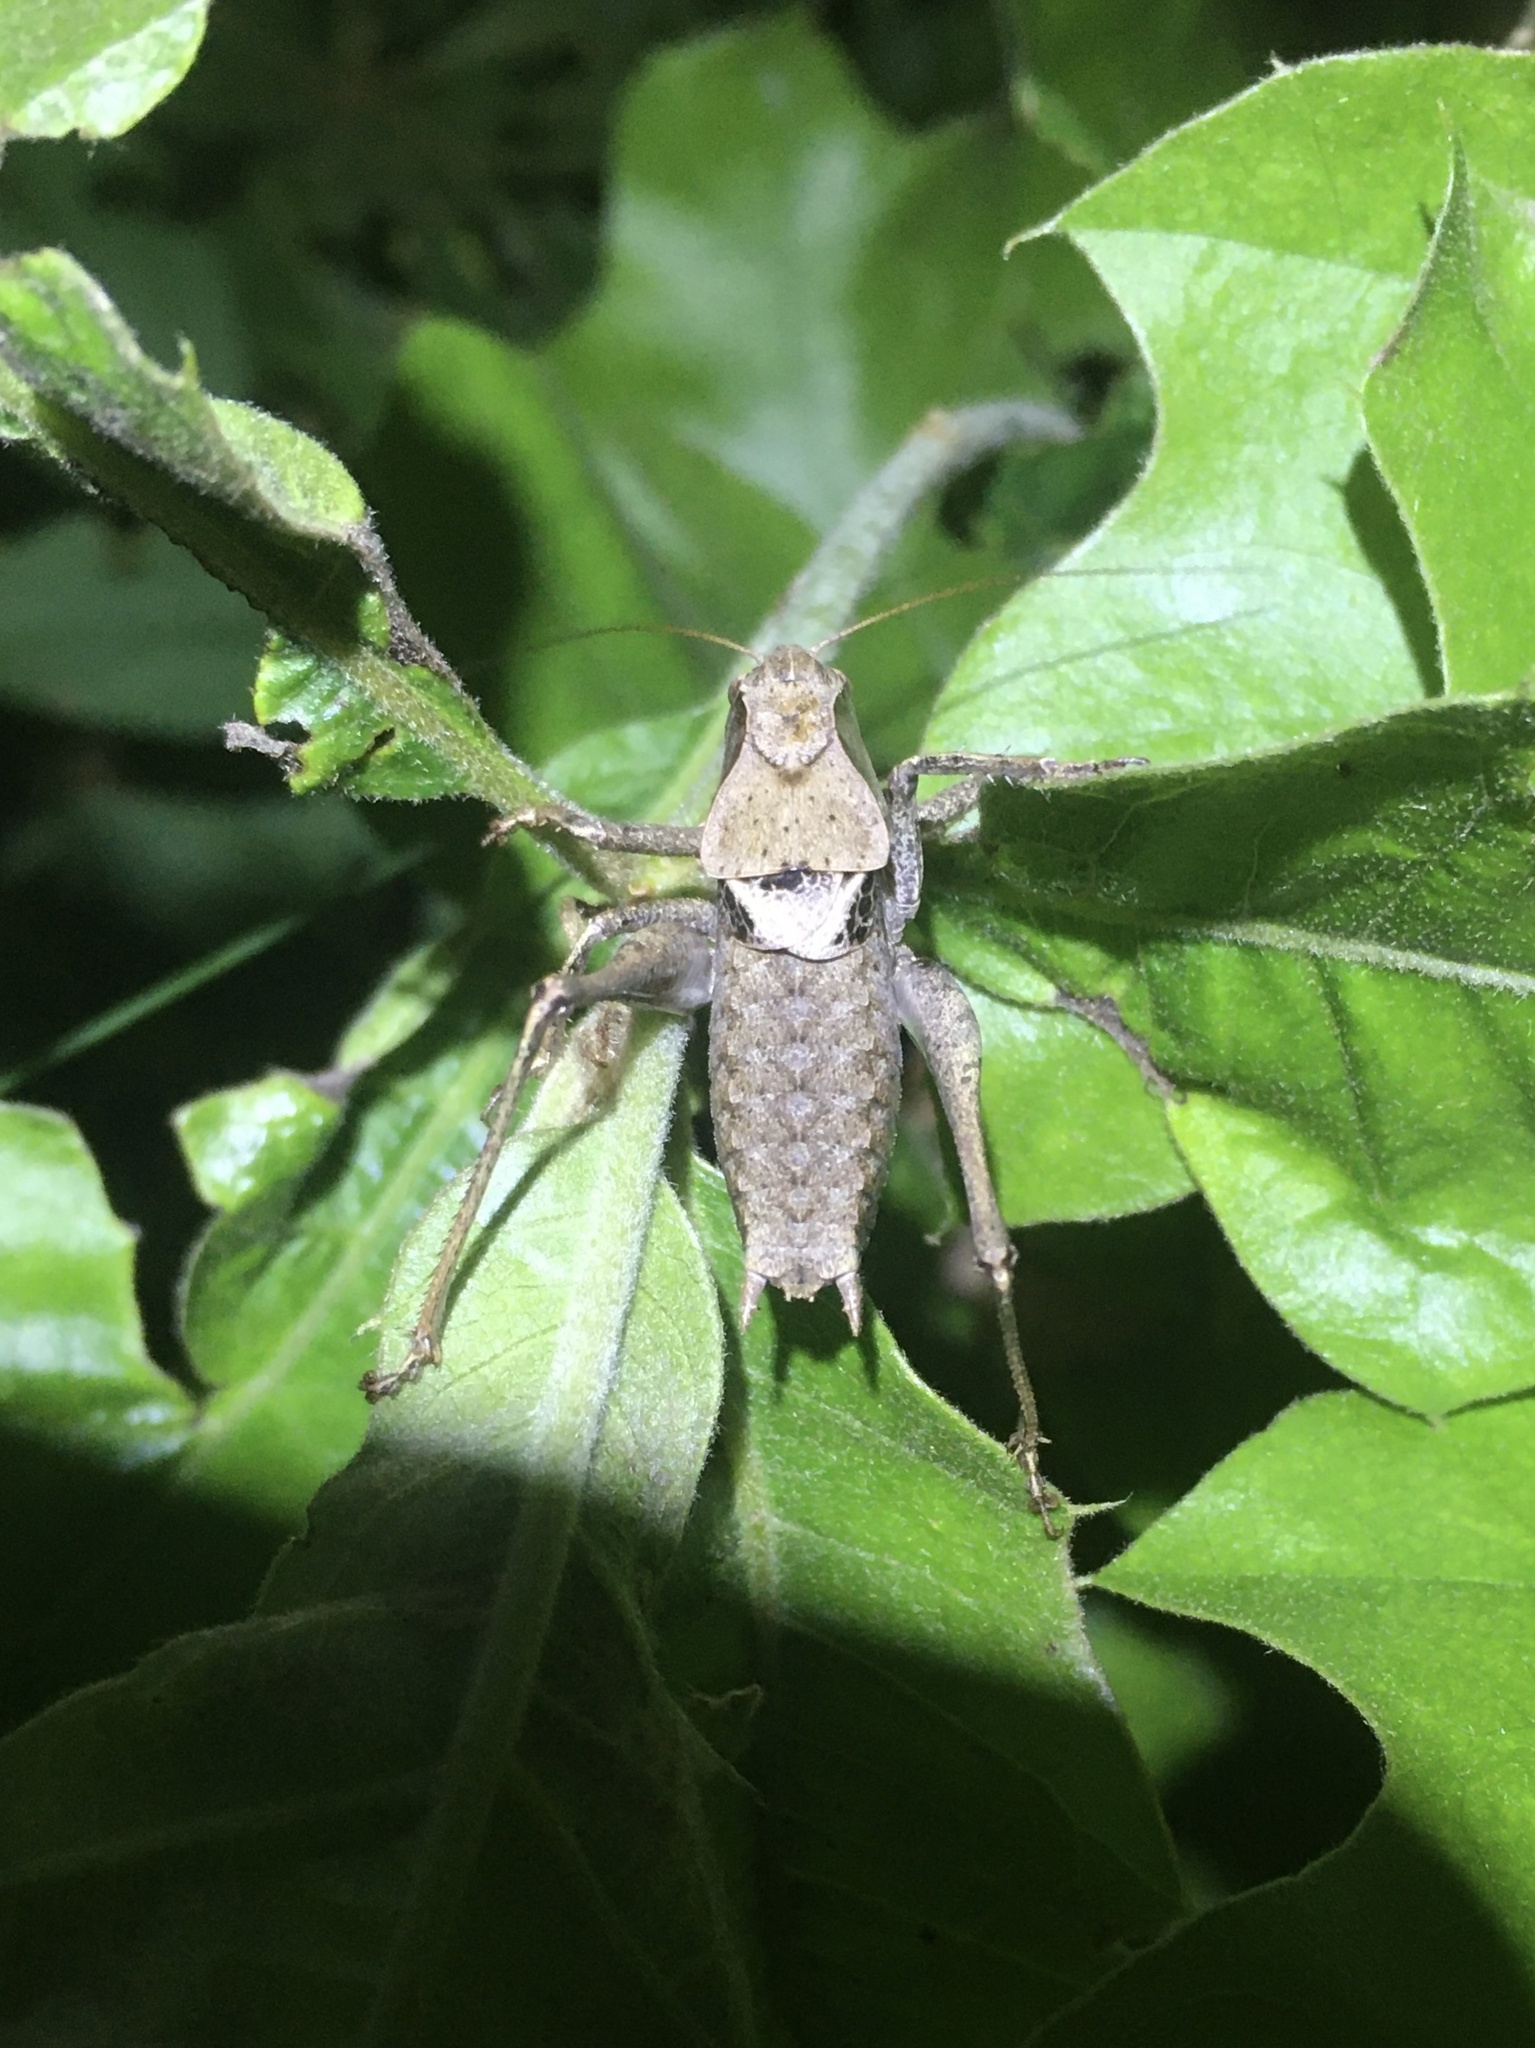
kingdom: Animalia
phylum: Arthropoda
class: Insecta
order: Orthoptera
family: Tettigoniidae
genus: Atlanticus
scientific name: Atlanticus davisi
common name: Davis's shield-bearer
